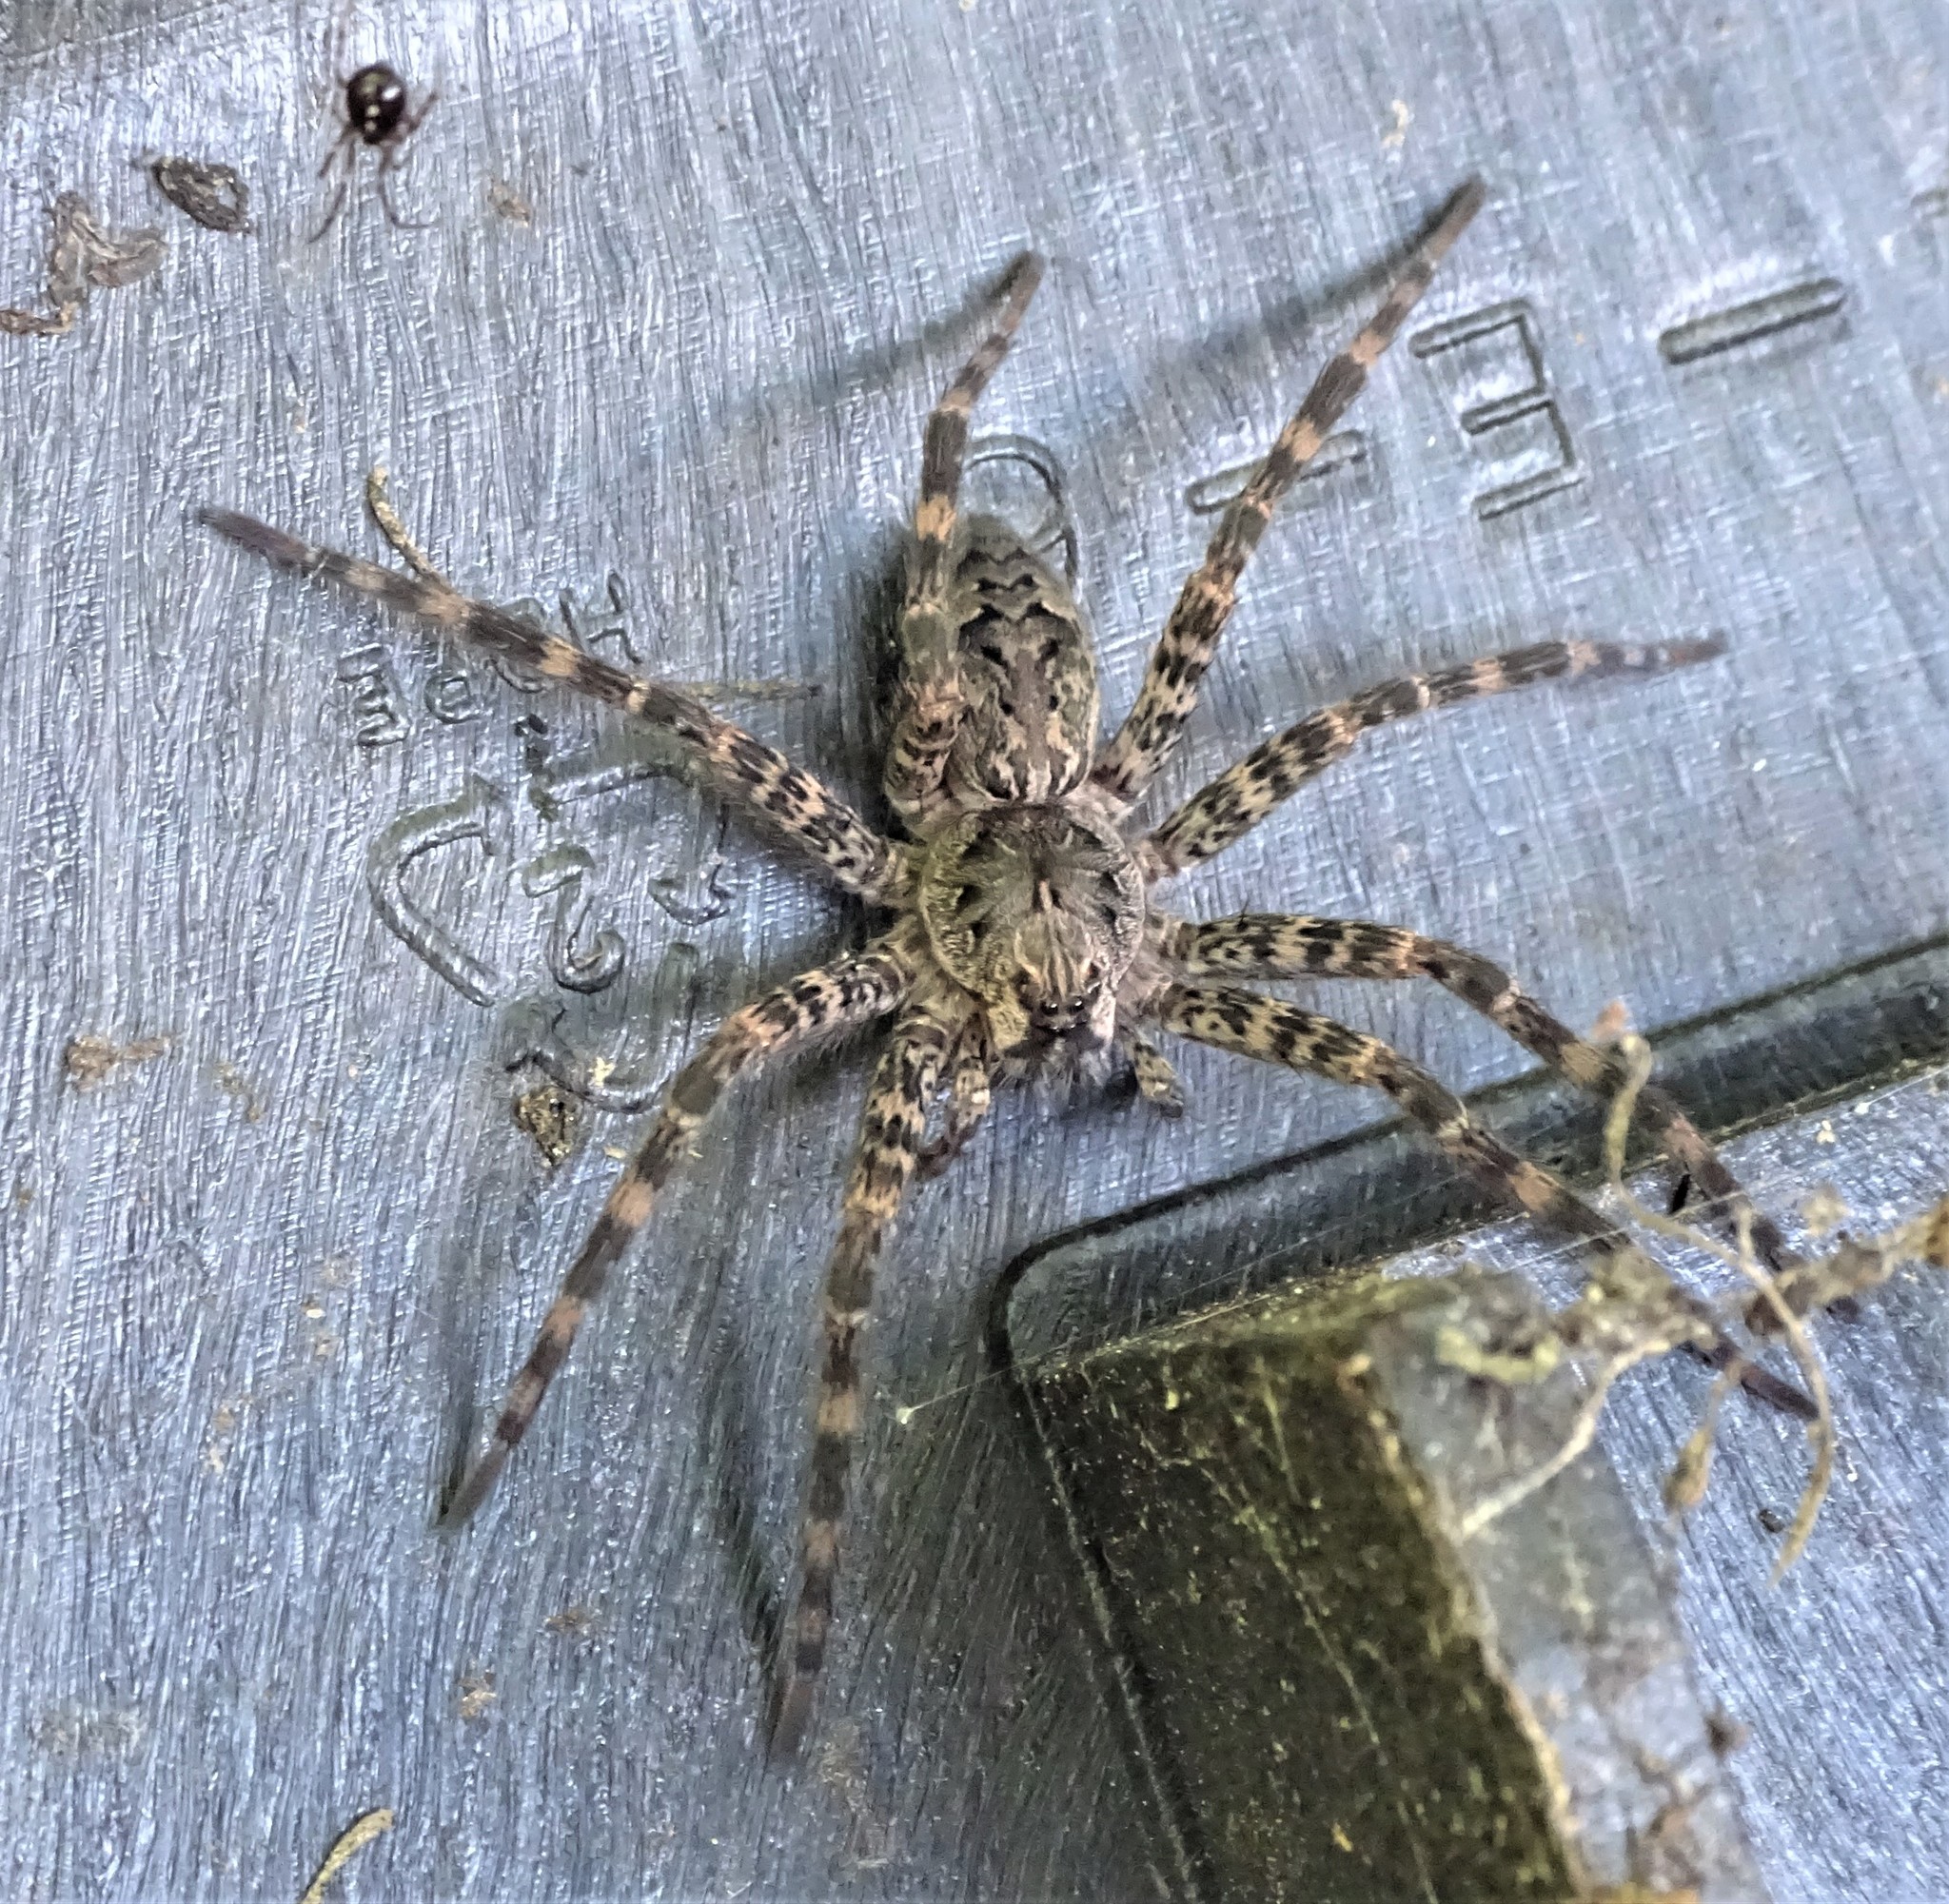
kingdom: Animalia
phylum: Arthropoda
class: Arachnida
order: Araneae
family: Pisauridae
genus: Dolomedes
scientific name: Dolomedes tenebrosus
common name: Dark fishing spider
